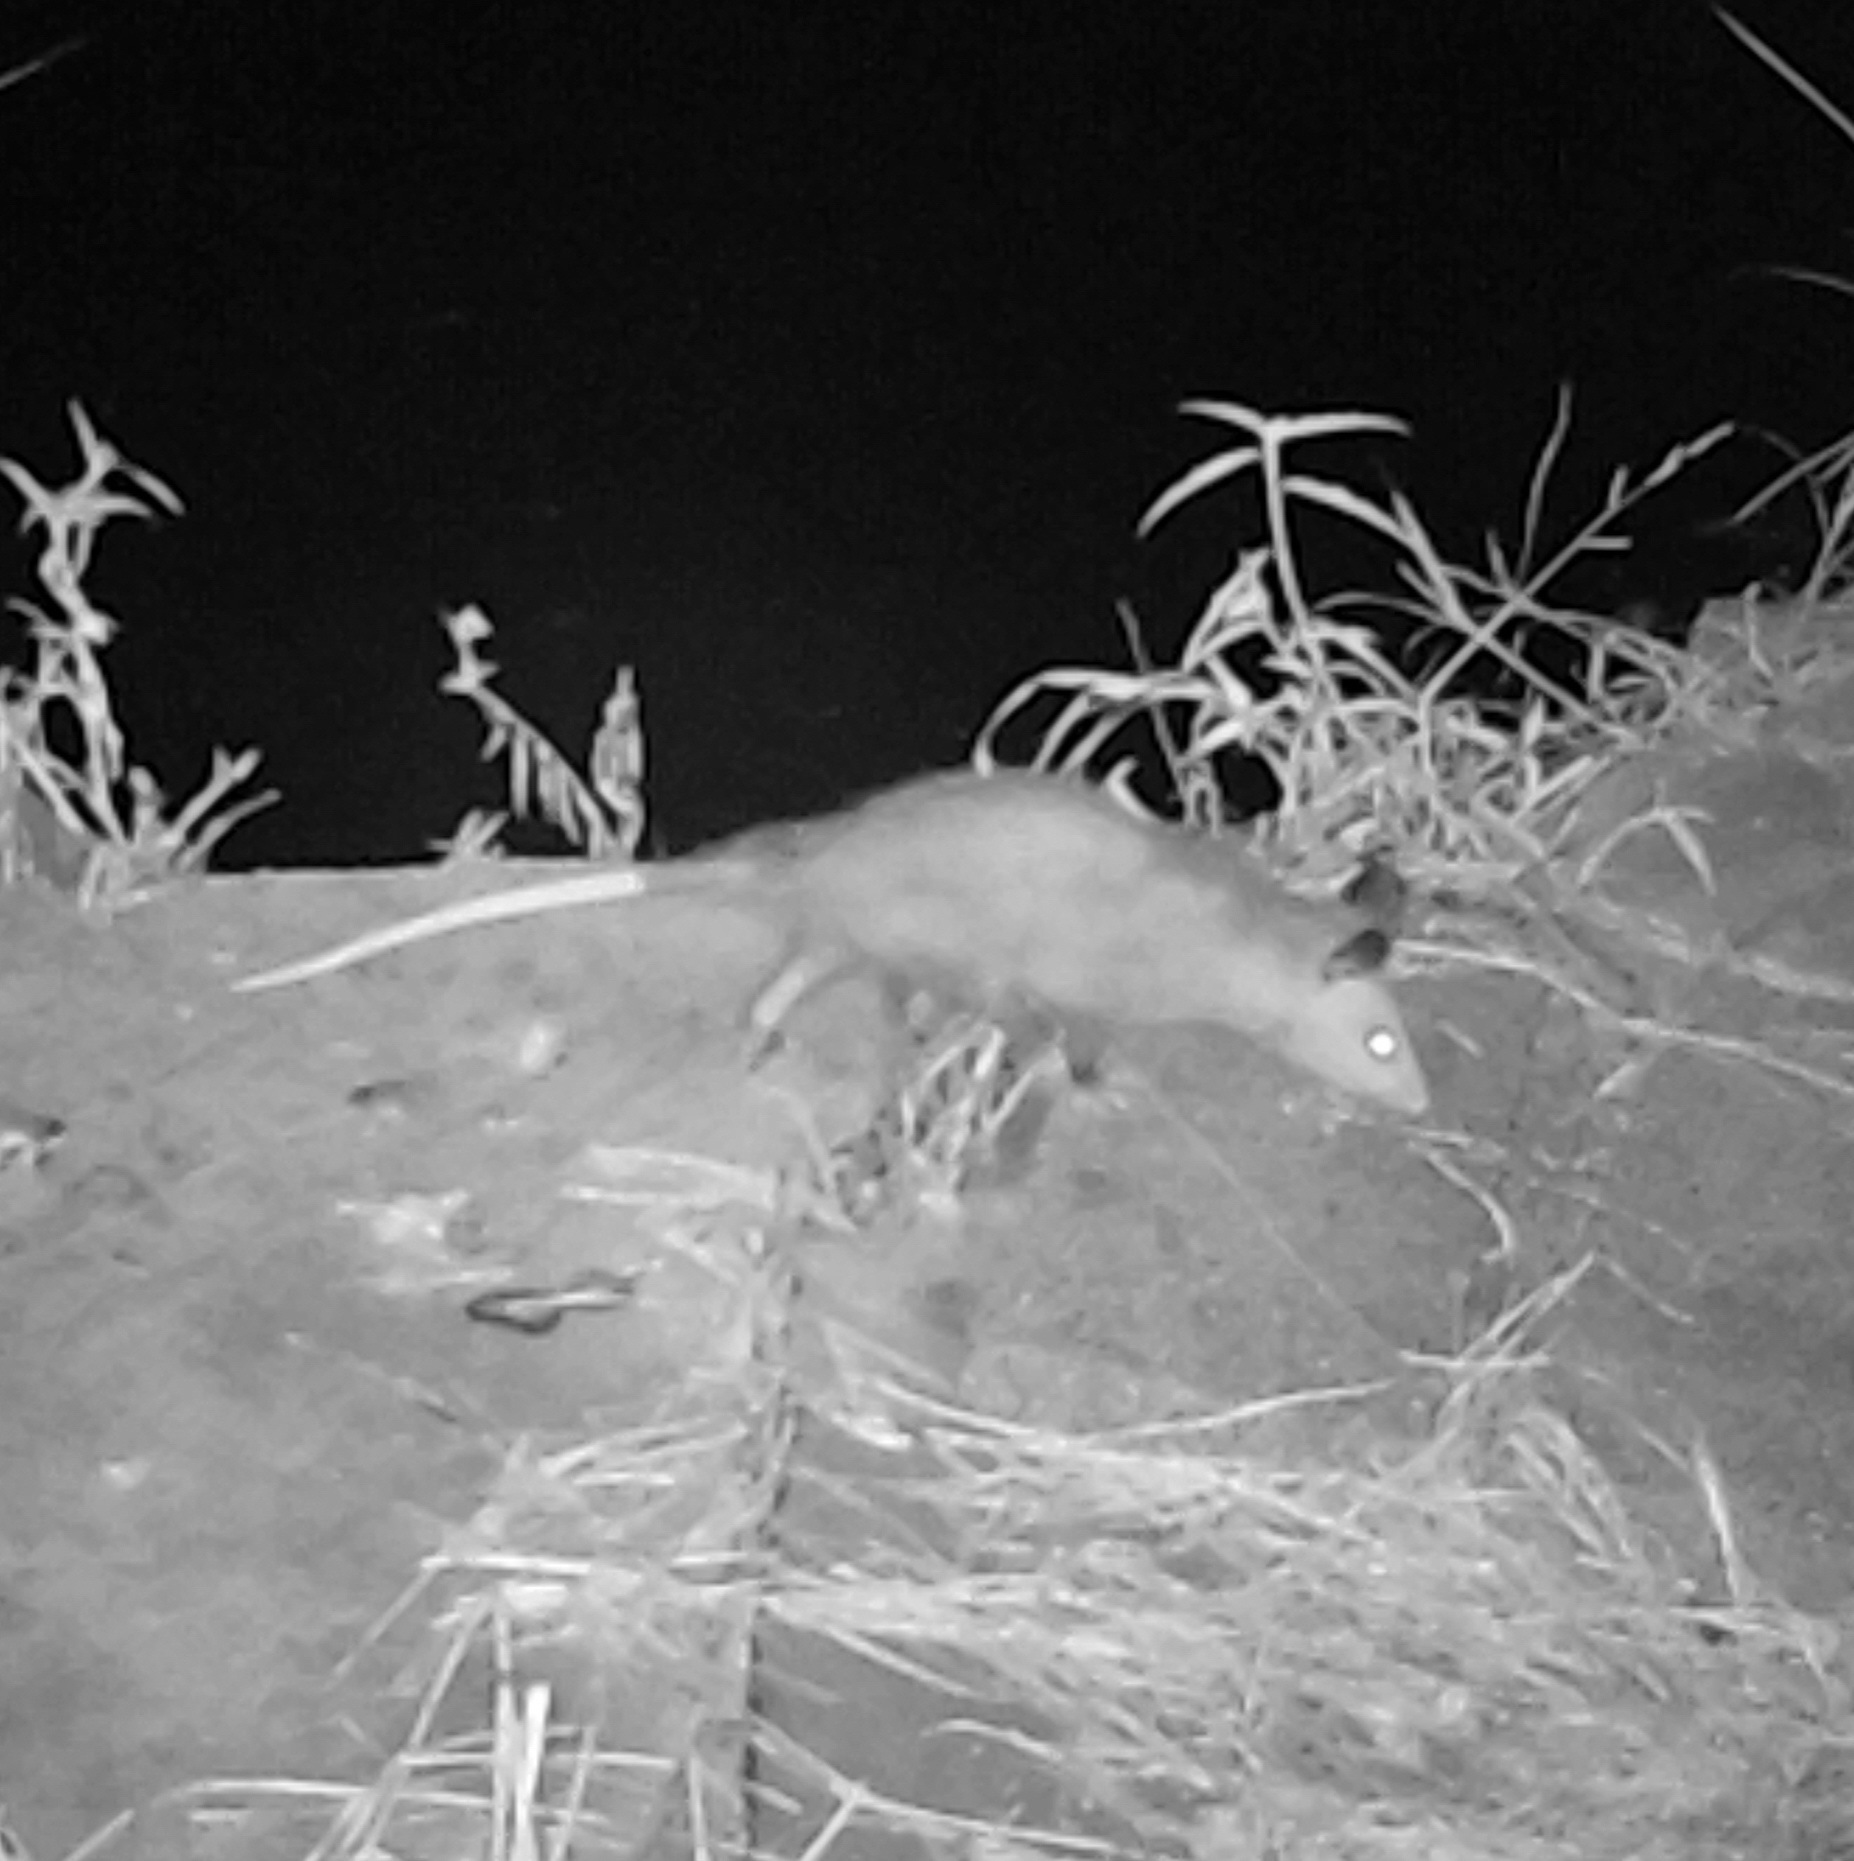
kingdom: Animalia
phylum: Chordata
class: Mammalia
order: Didelphimorphia
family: Didelphidae
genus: Didelphis
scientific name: Didelphis virginiana
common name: Virginia opossum
